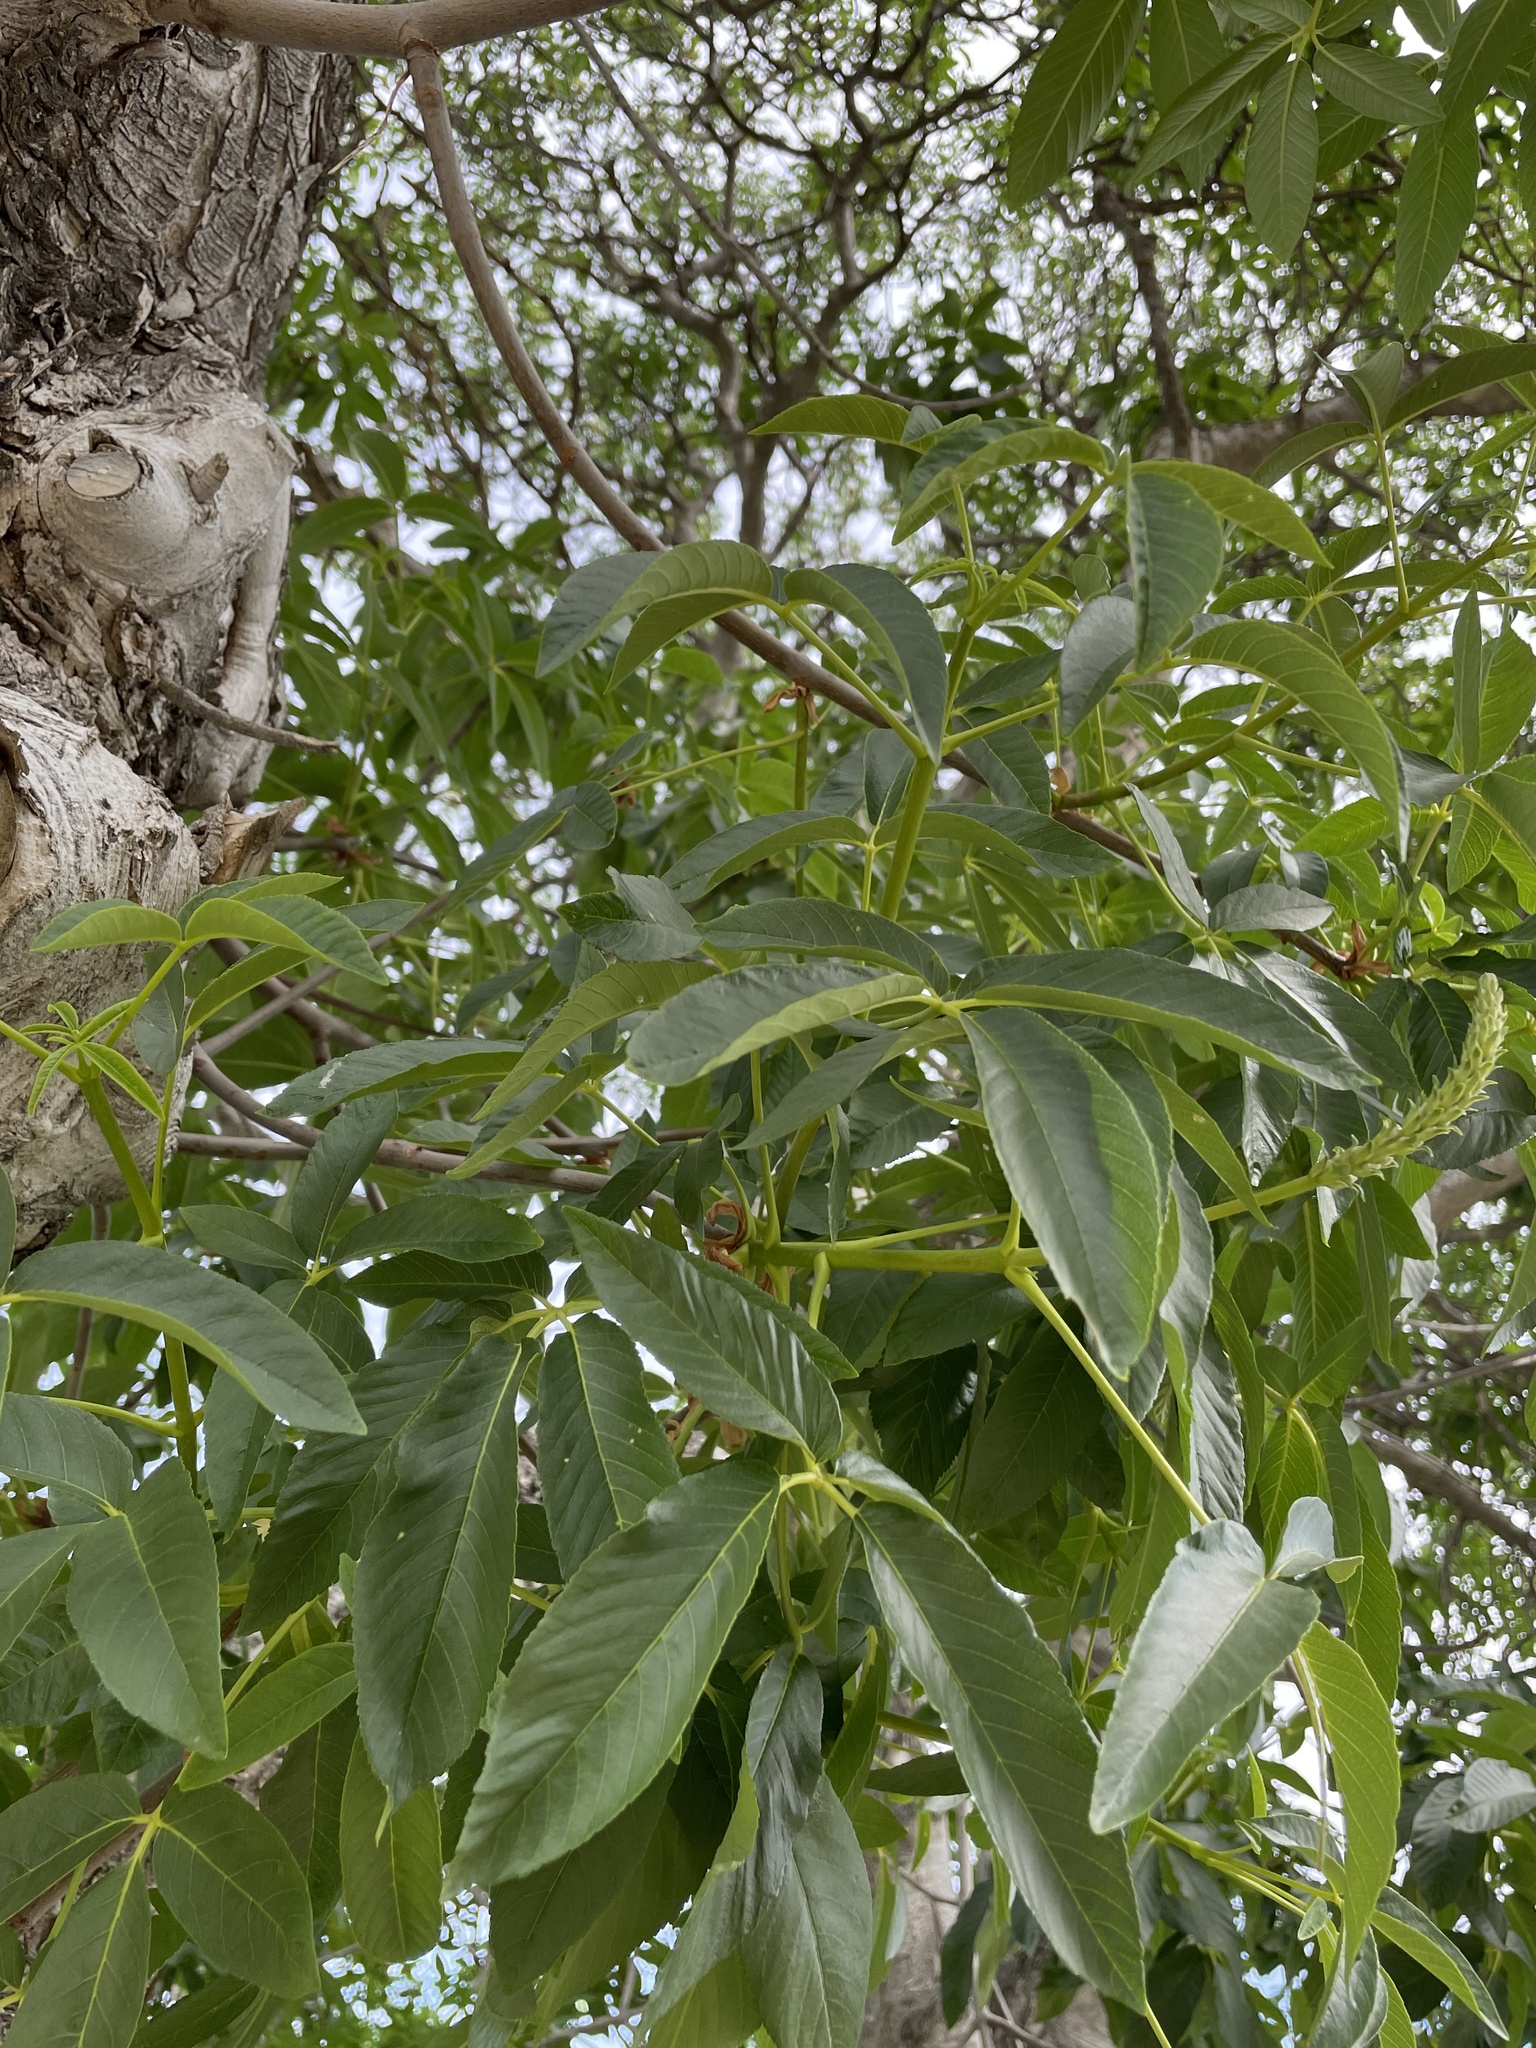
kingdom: Plantae
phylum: Tracheophyta
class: Magnoliopsida
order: Sapindales
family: Sapindaceae
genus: Aesculus
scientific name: Aesculus californica
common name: California buckeye
